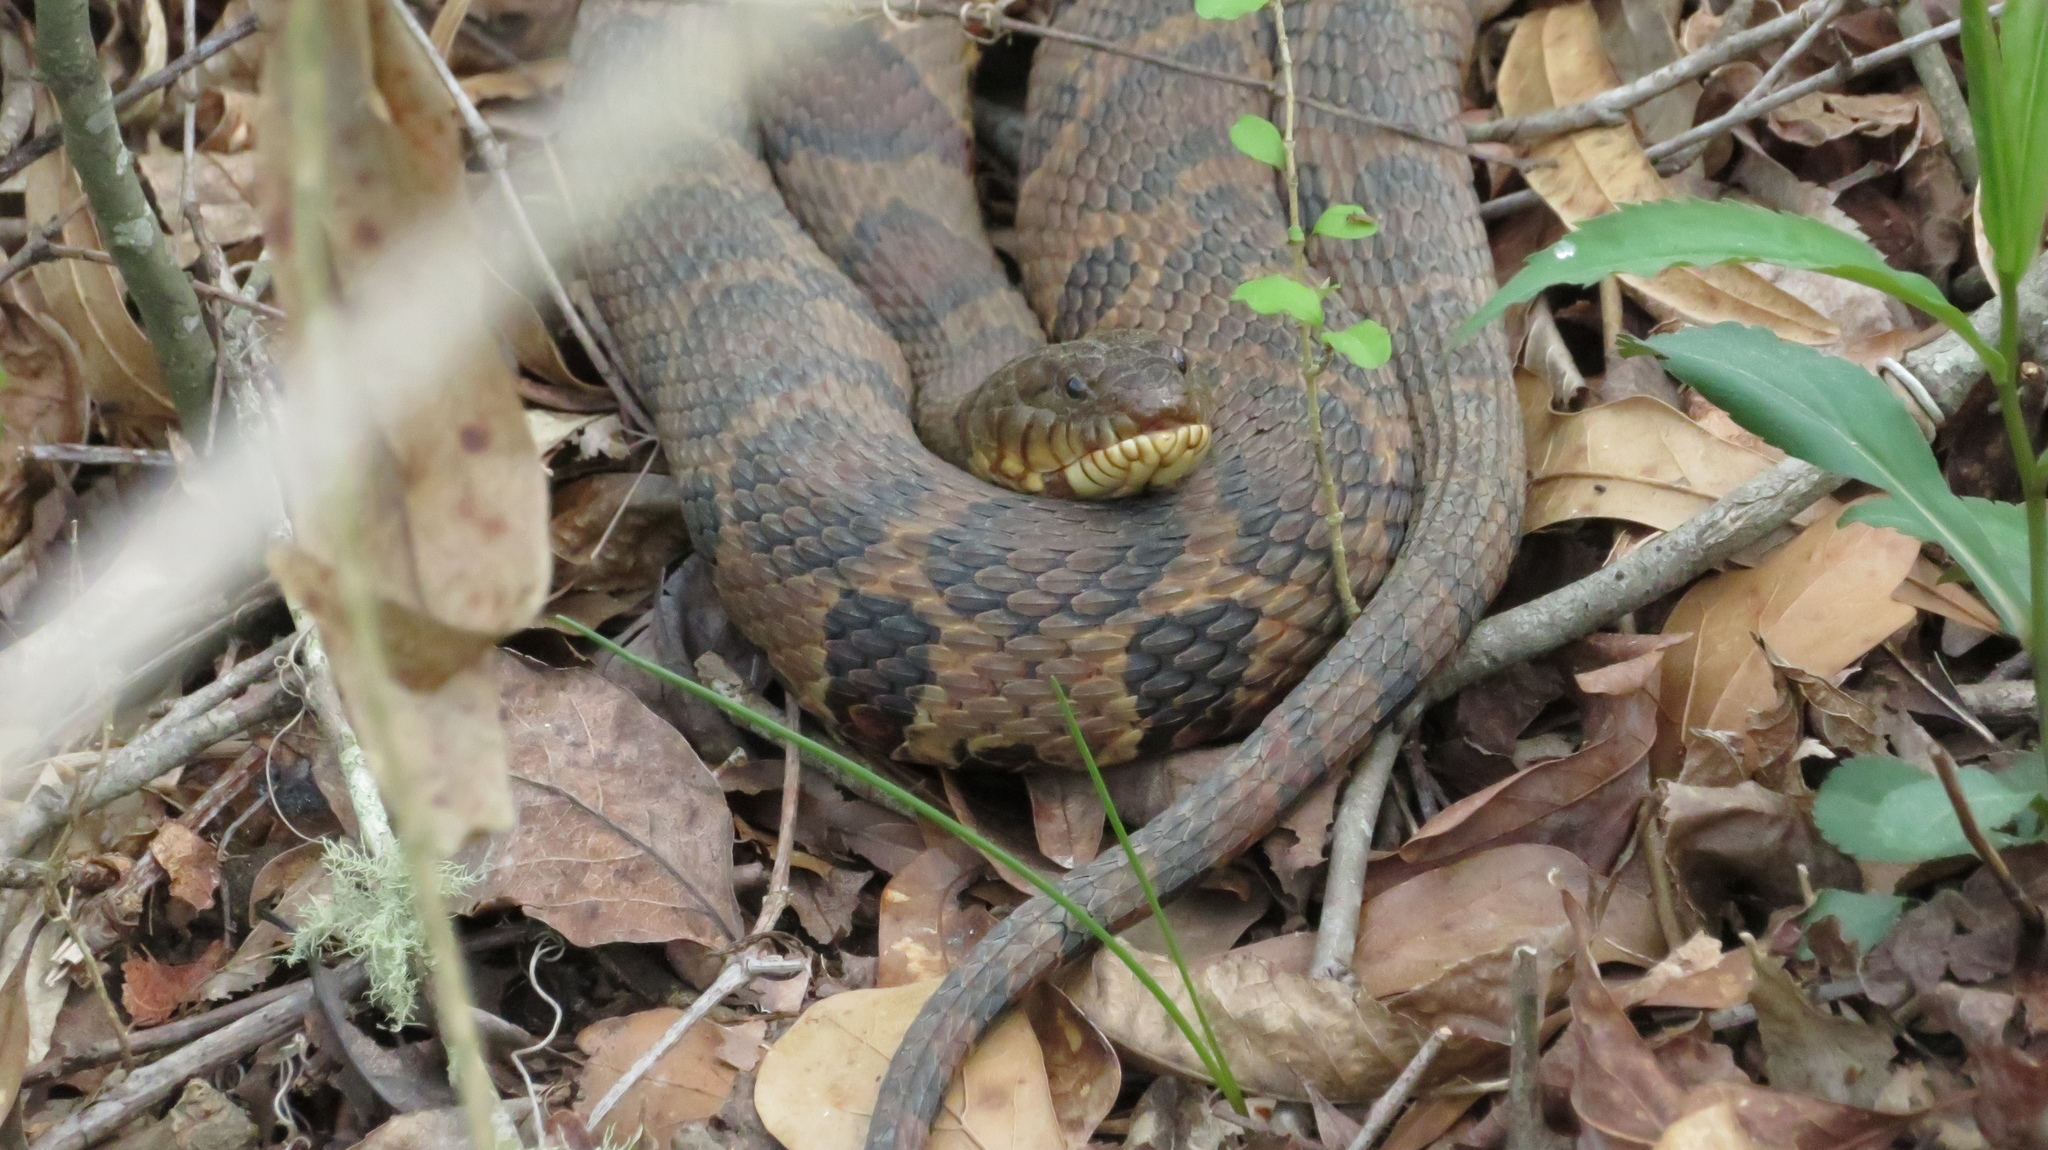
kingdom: Animalia
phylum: Chordata
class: Squamata
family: Colubridae
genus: Nerodia
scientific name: Nerodia sipedon
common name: Northern water snake
